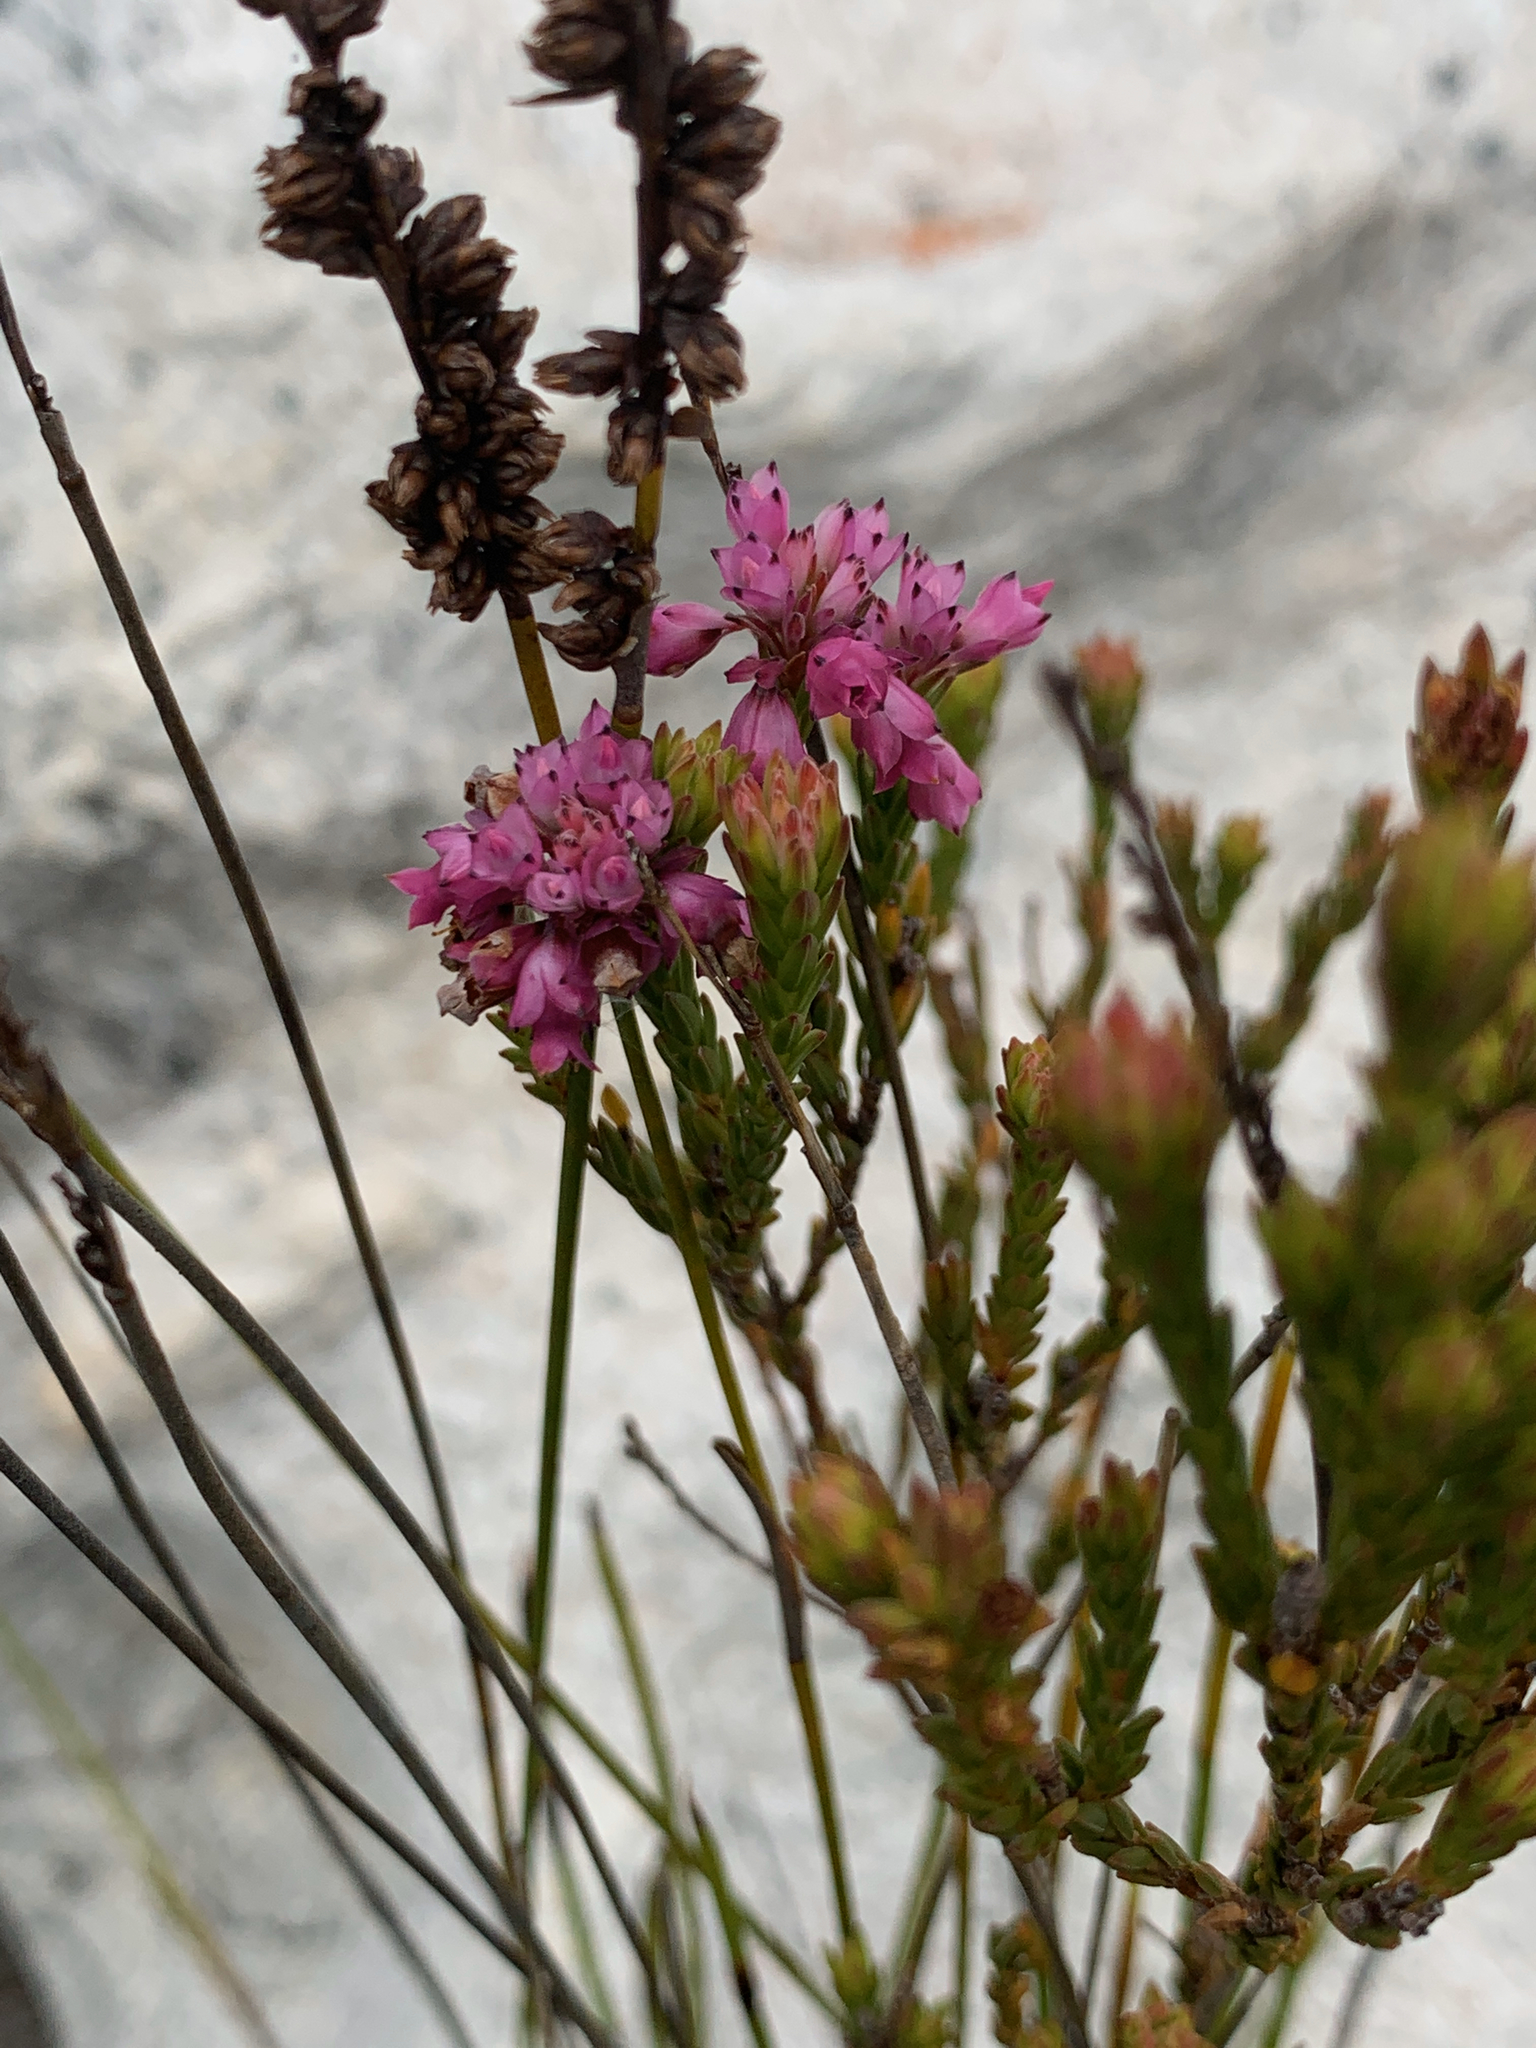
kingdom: Plantae
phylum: Tracheophyta
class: Magnoliopsida
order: Ericales
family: Ericaceae
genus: Erica
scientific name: Erica corifolia
